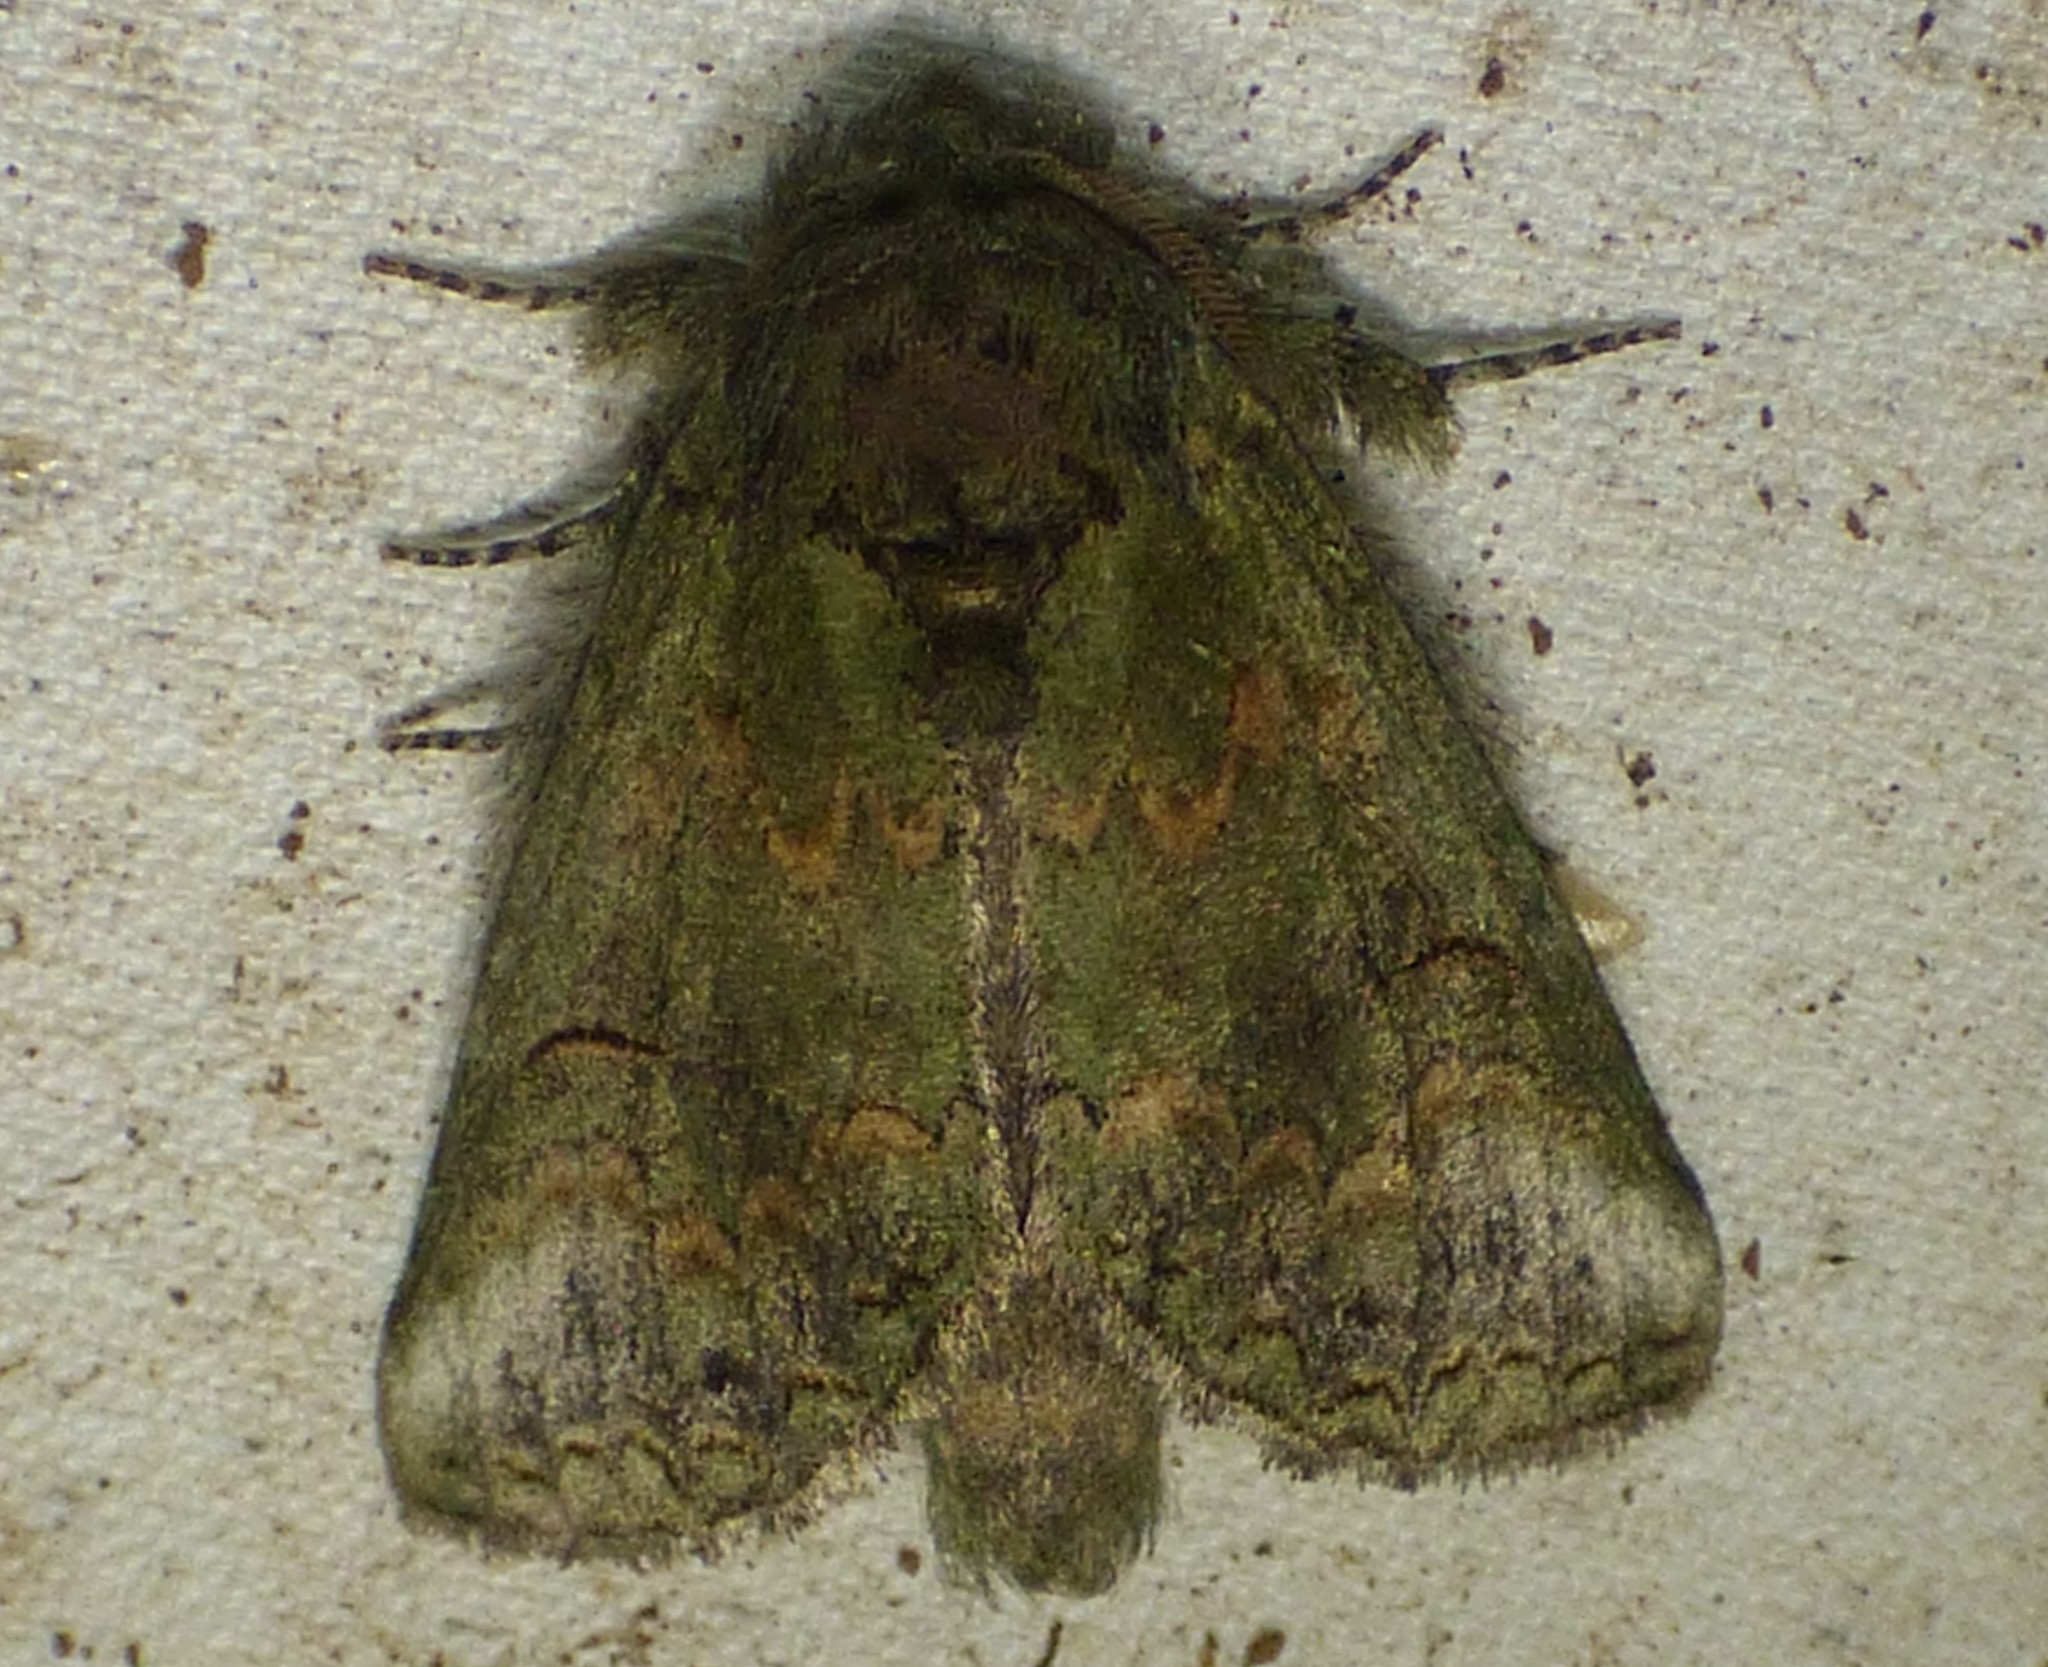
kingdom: Animalia
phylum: Arthropoda
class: Insecta
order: Lepidoptera
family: Notodontidae
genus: Rifargia
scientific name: Rifargia
